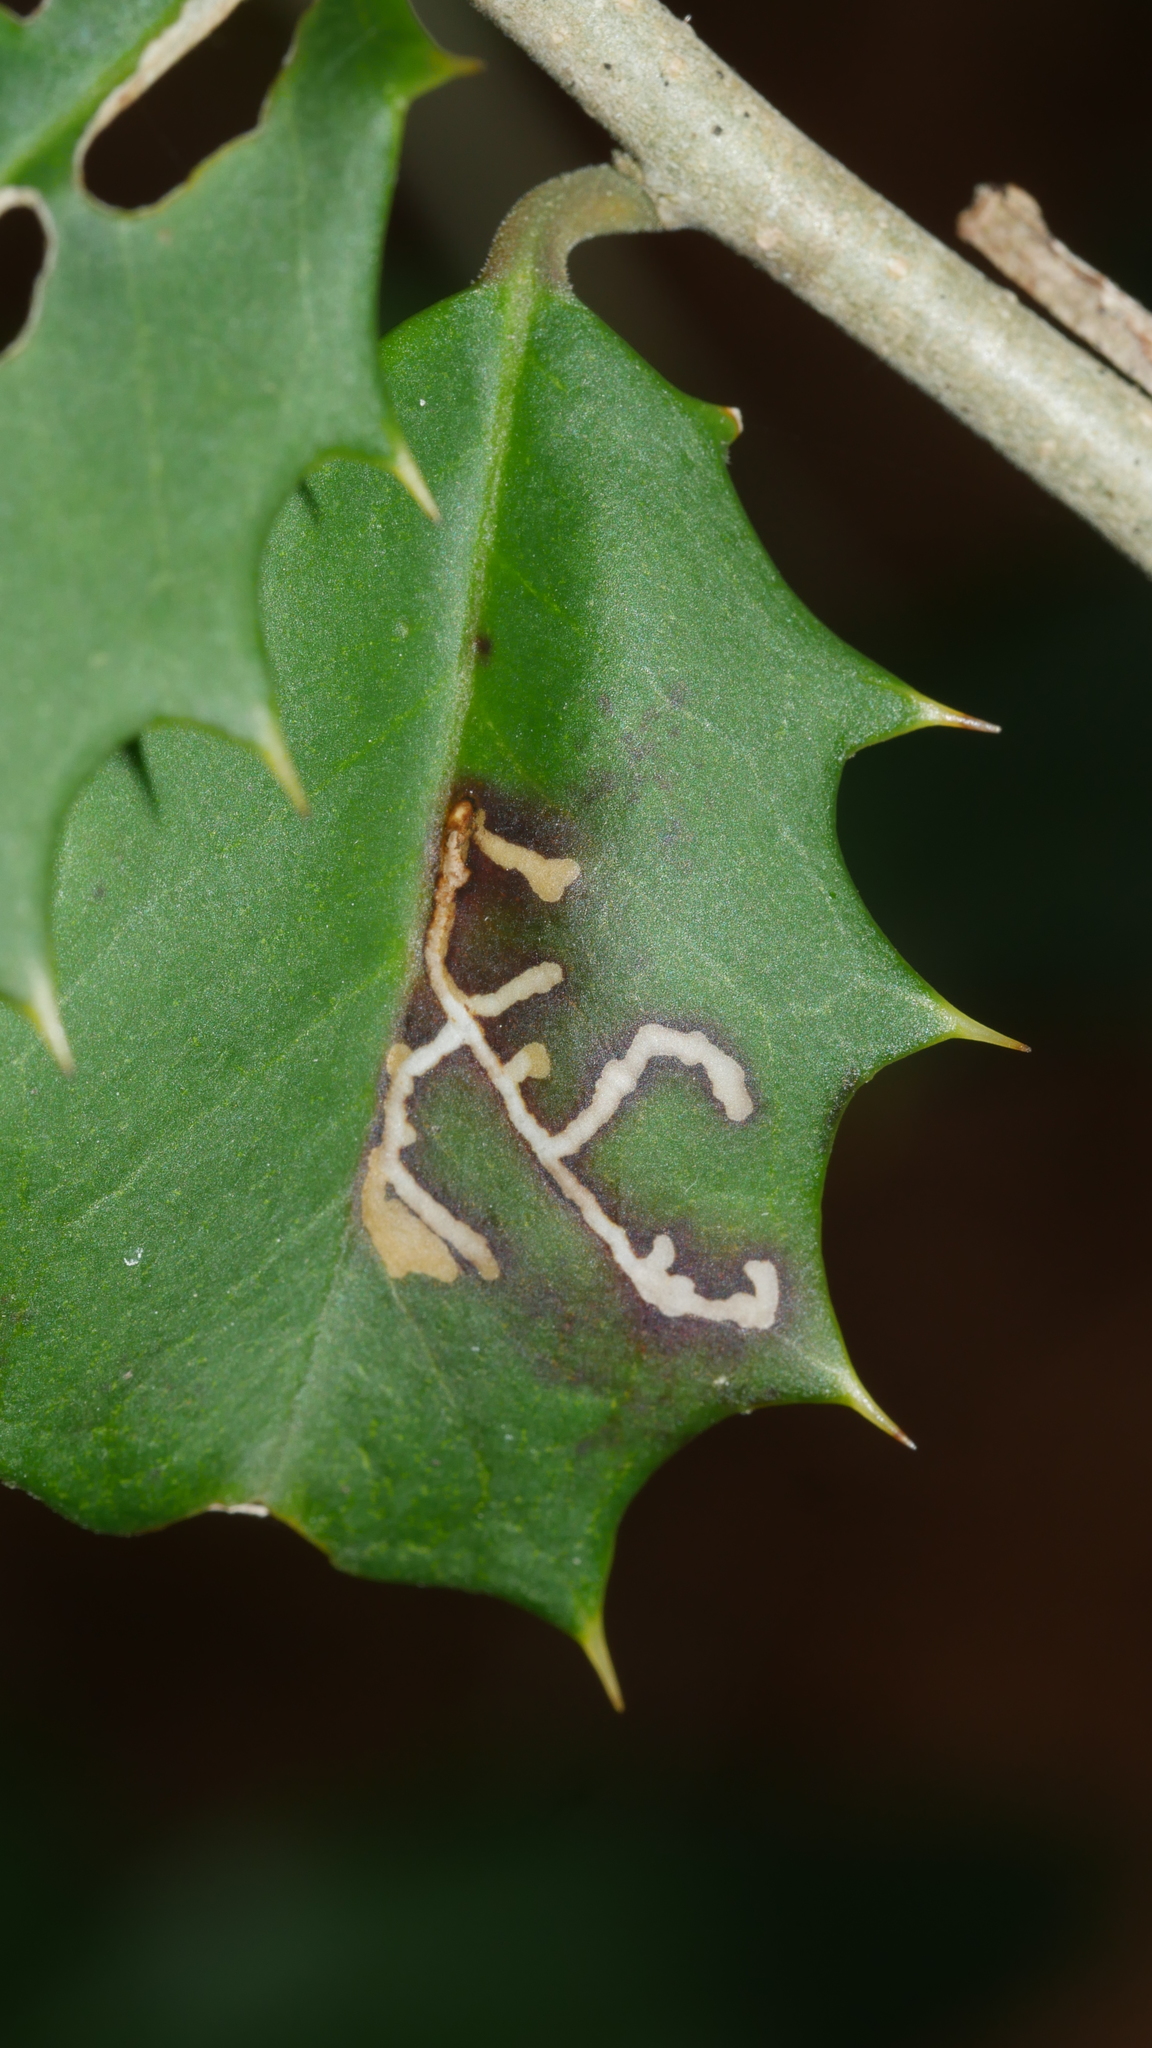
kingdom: Animalia
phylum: Arthropoda
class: Insecta
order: Lepidoptera
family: Tortricidae
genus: Rhopobota
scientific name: Rhopobota
